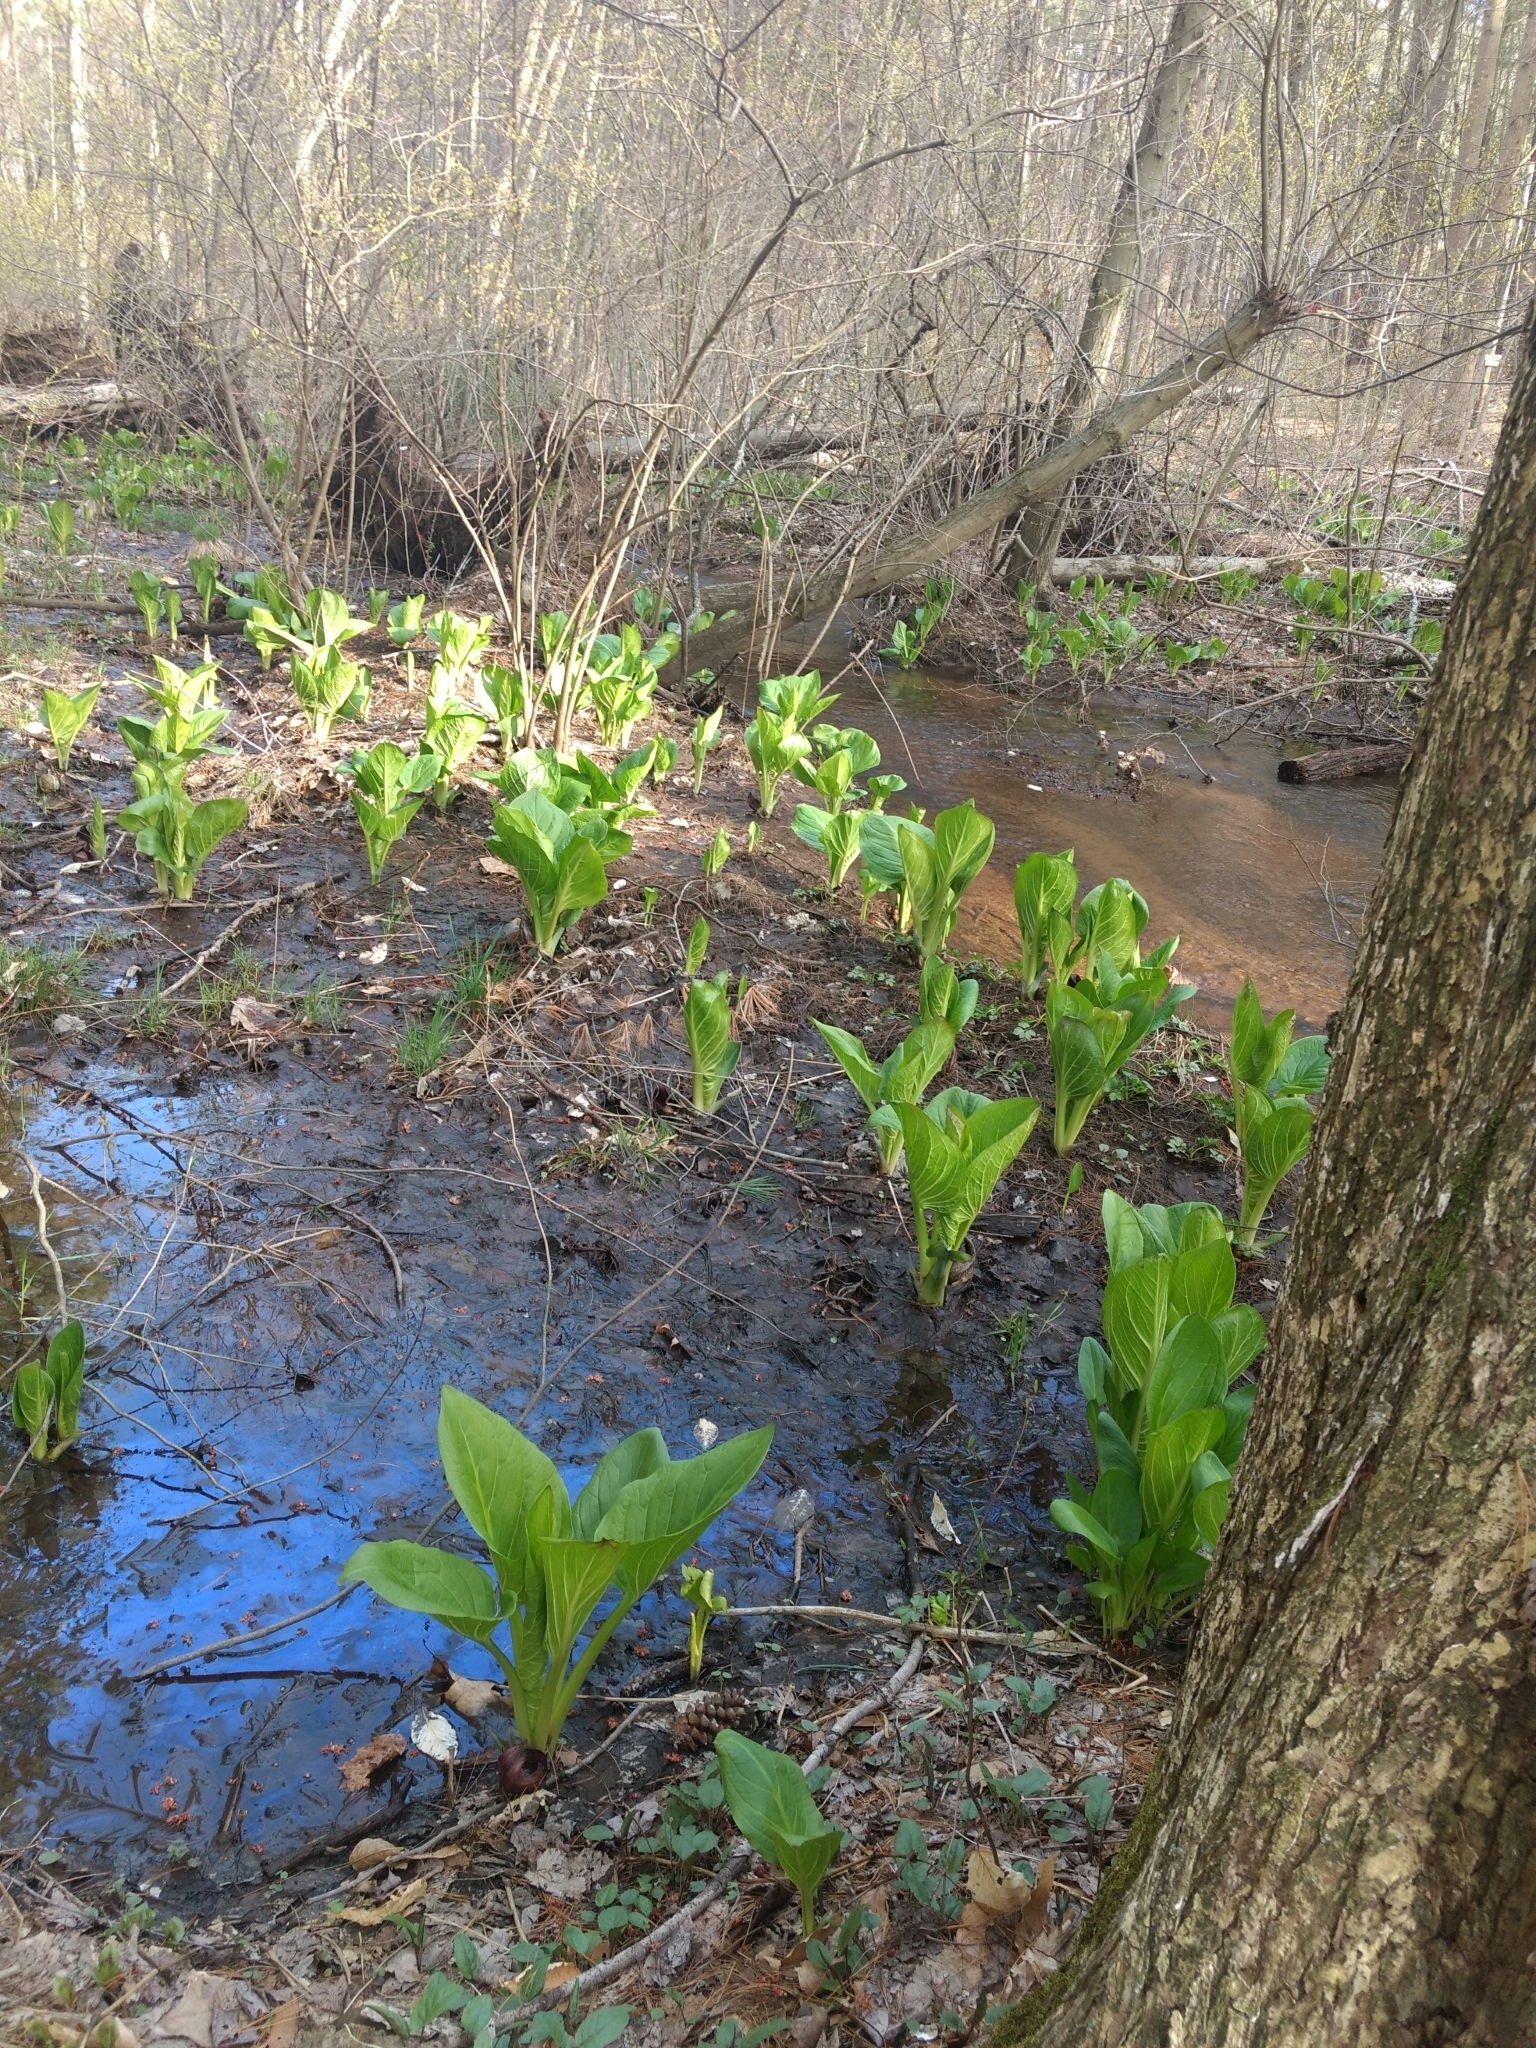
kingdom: Plantae
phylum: Tracheophyta
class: Liliopsida
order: Alismatales
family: Araceae
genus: Symplocarpus
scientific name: Symplocarpus foetidus
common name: Eastern skunk cabbage
